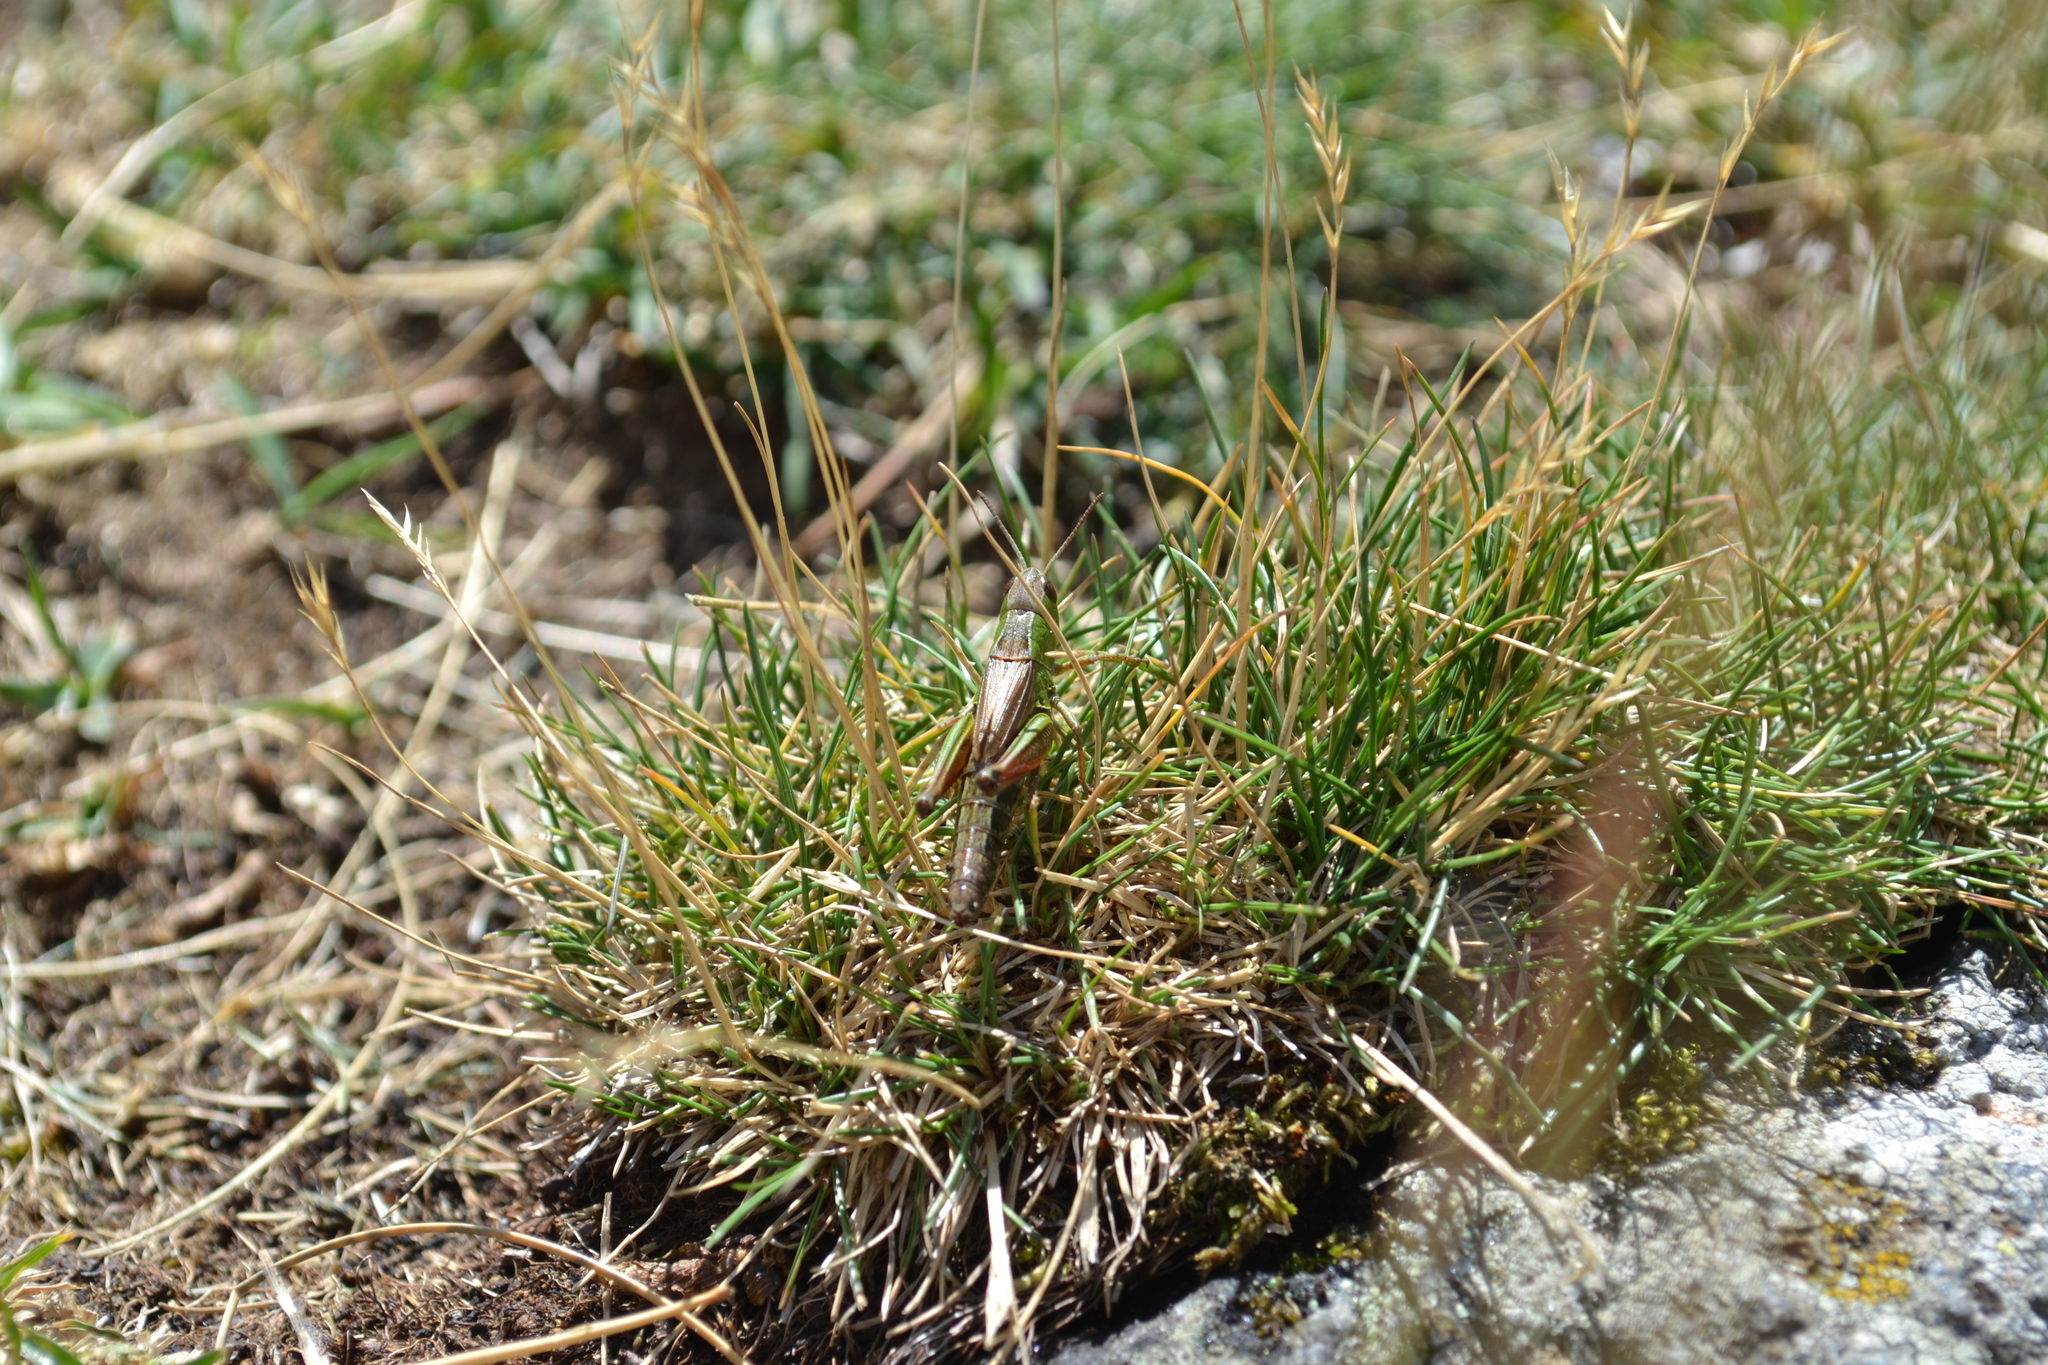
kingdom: Animalia
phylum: Arthropoda
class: Insecta
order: Orthoptera
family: Acrididae
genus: Pseudochorthippus
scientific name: Pseudochorthippus parallelus
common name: Meadow grasshopper
